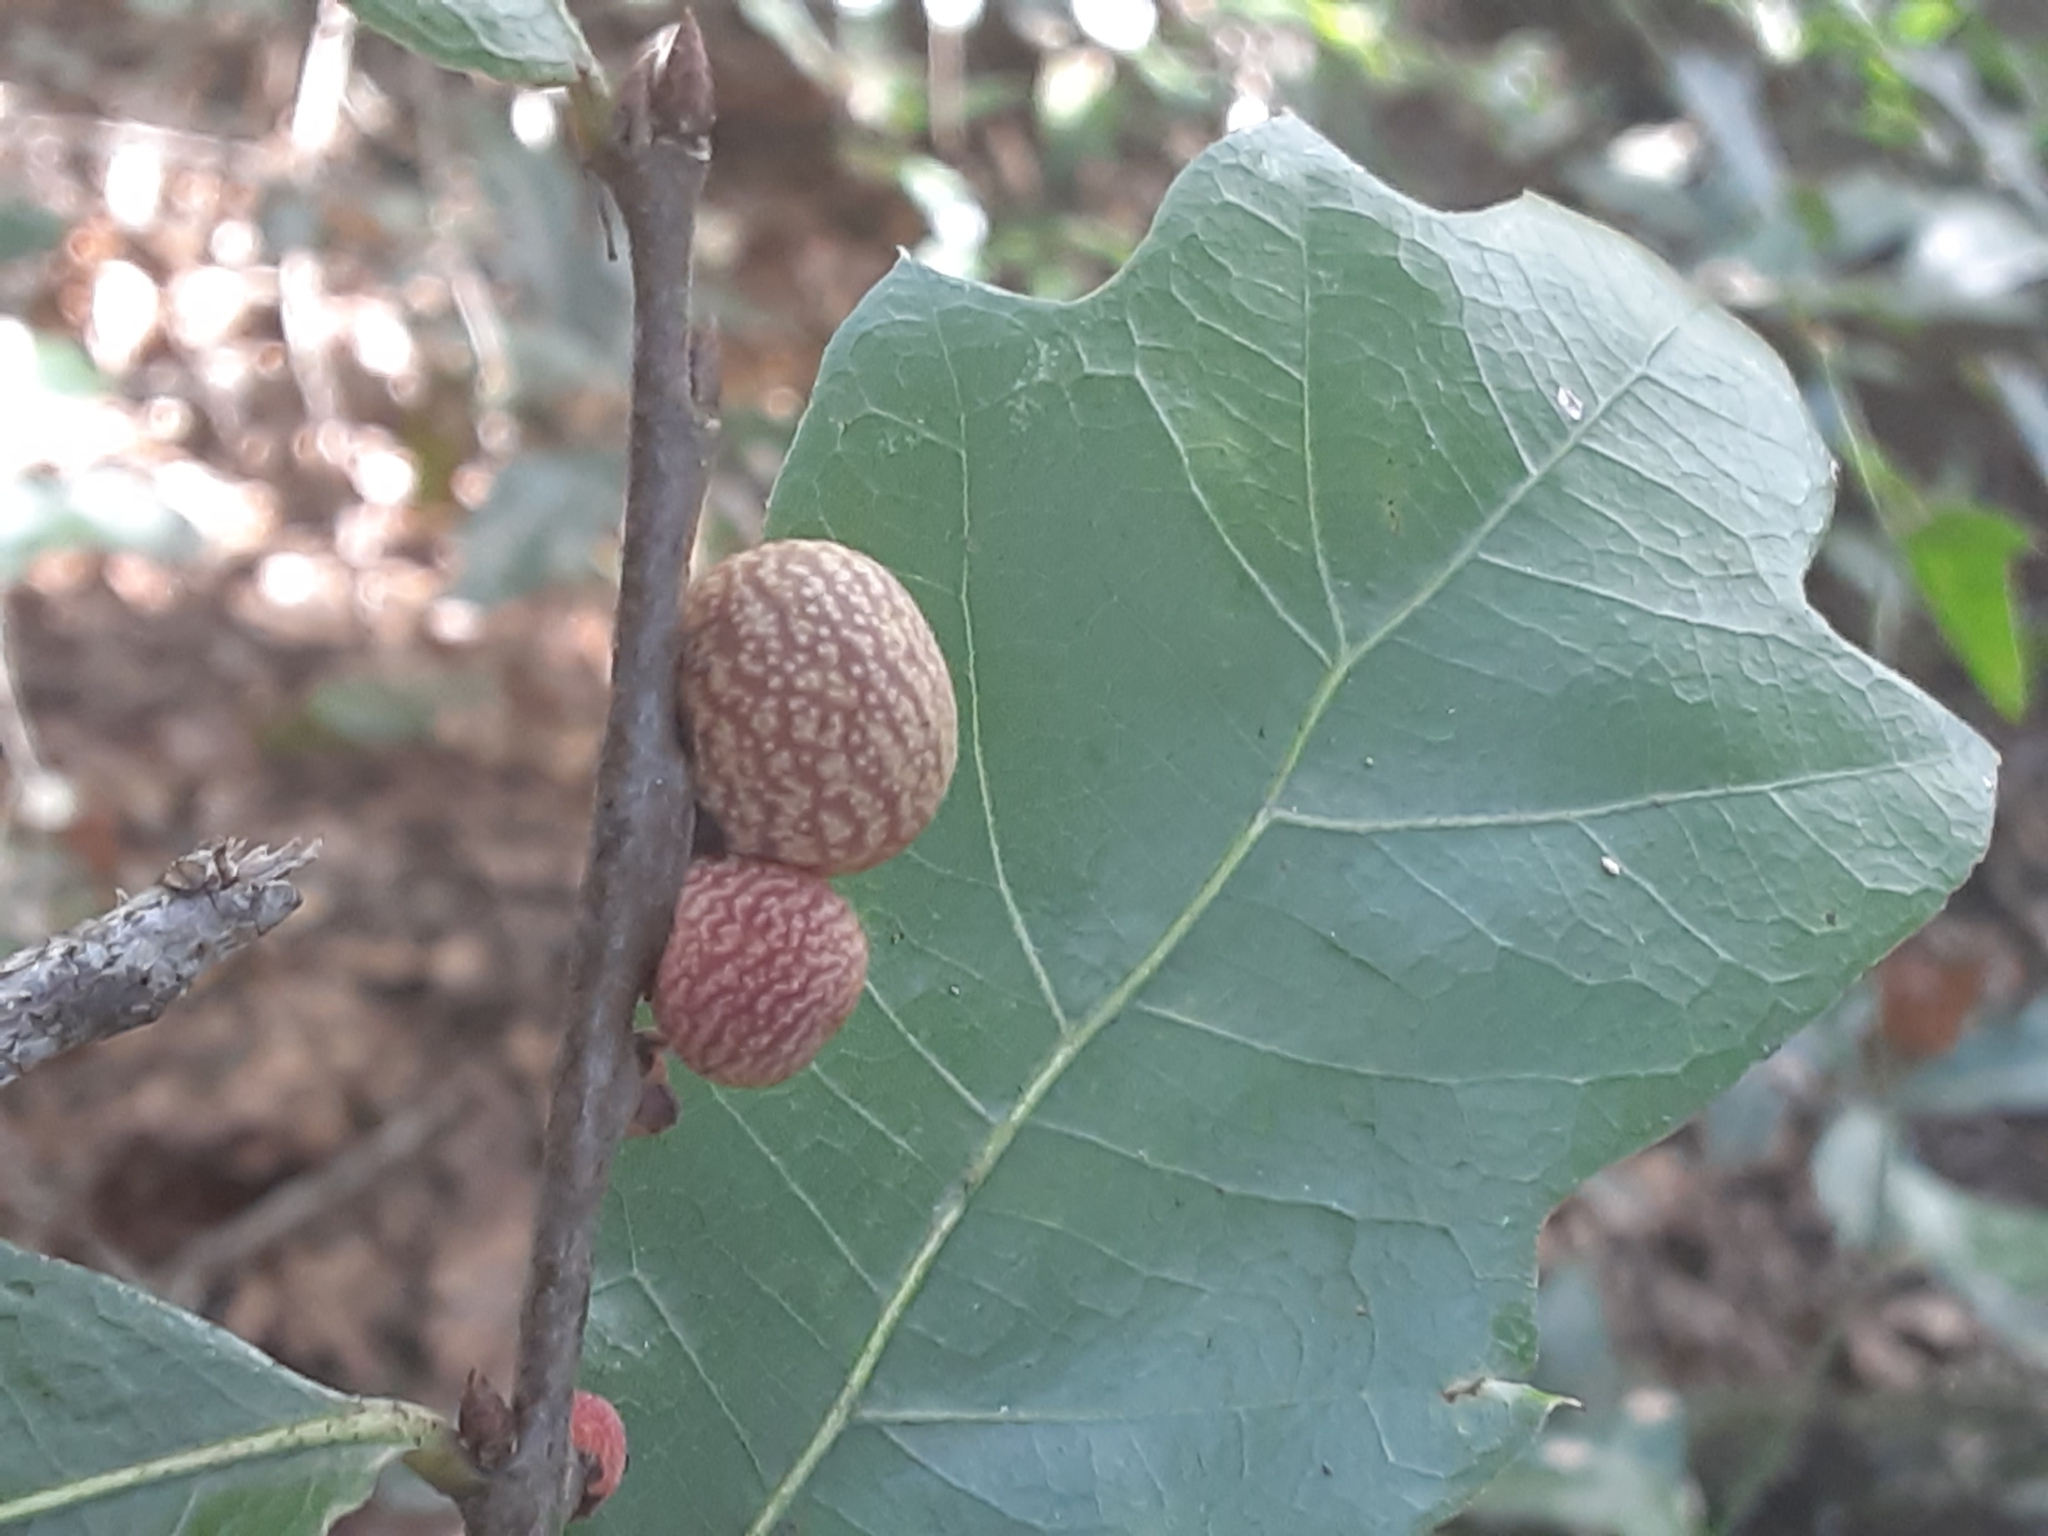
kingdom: Animalia
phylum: Arthropoda
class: Insecta
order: Hymenoptera
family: Cynipidae
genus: Kokkocynips
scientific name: Kokkocynips imbricariae
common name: Banded bullet gall wasp
